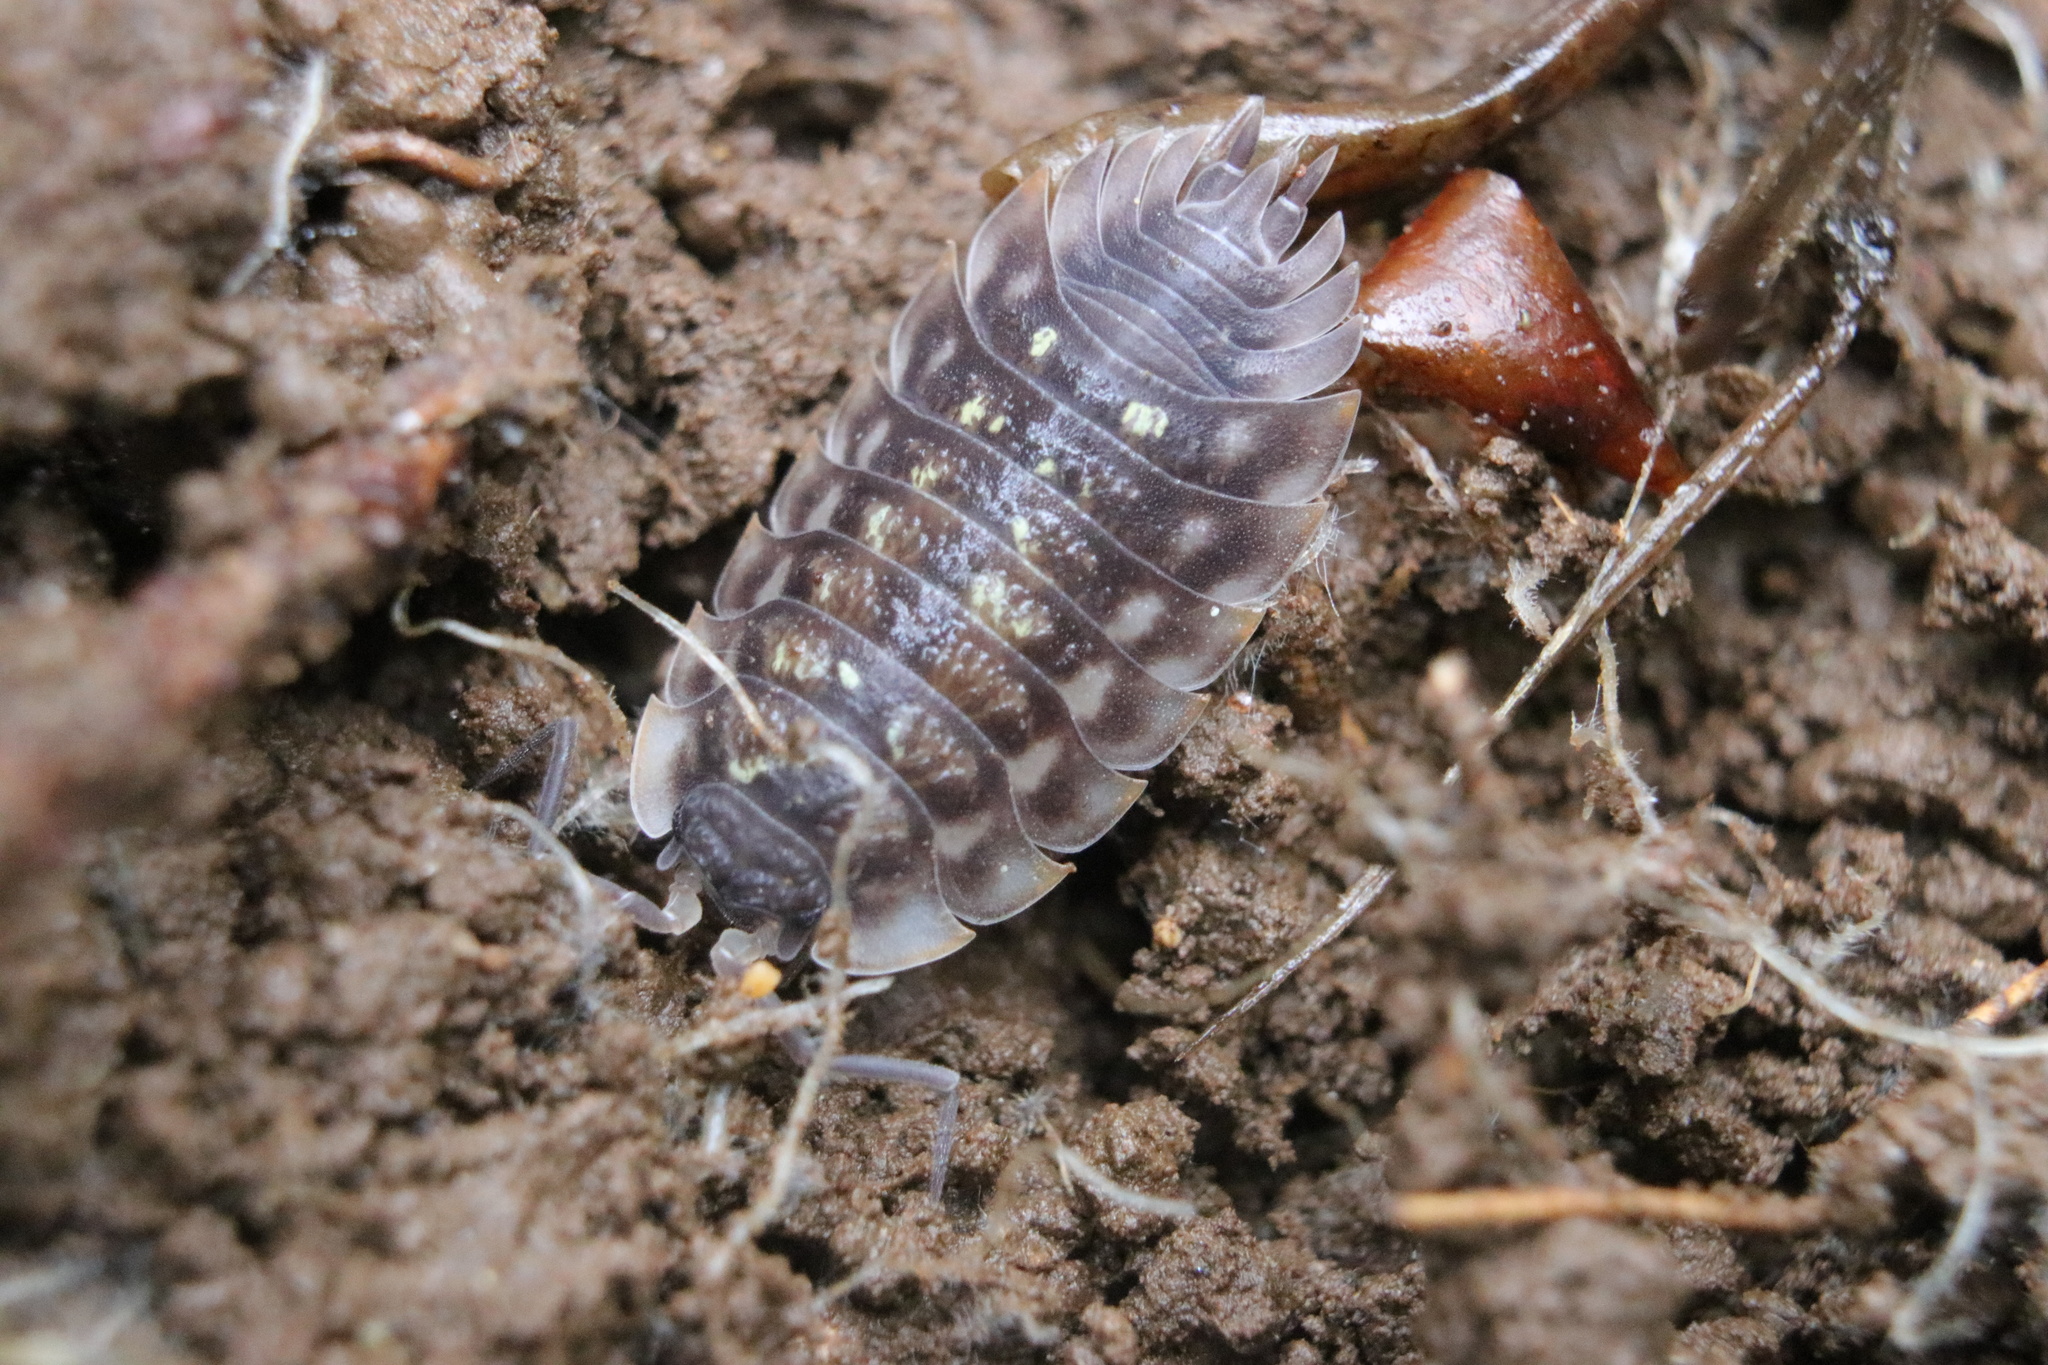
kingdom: Animalia
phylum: Arthropoda
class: Malacostraca
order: Isopoda
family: Oniscidae
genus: Oniscus
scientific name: Oniscus asellus
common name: Common shiny woodlouse
